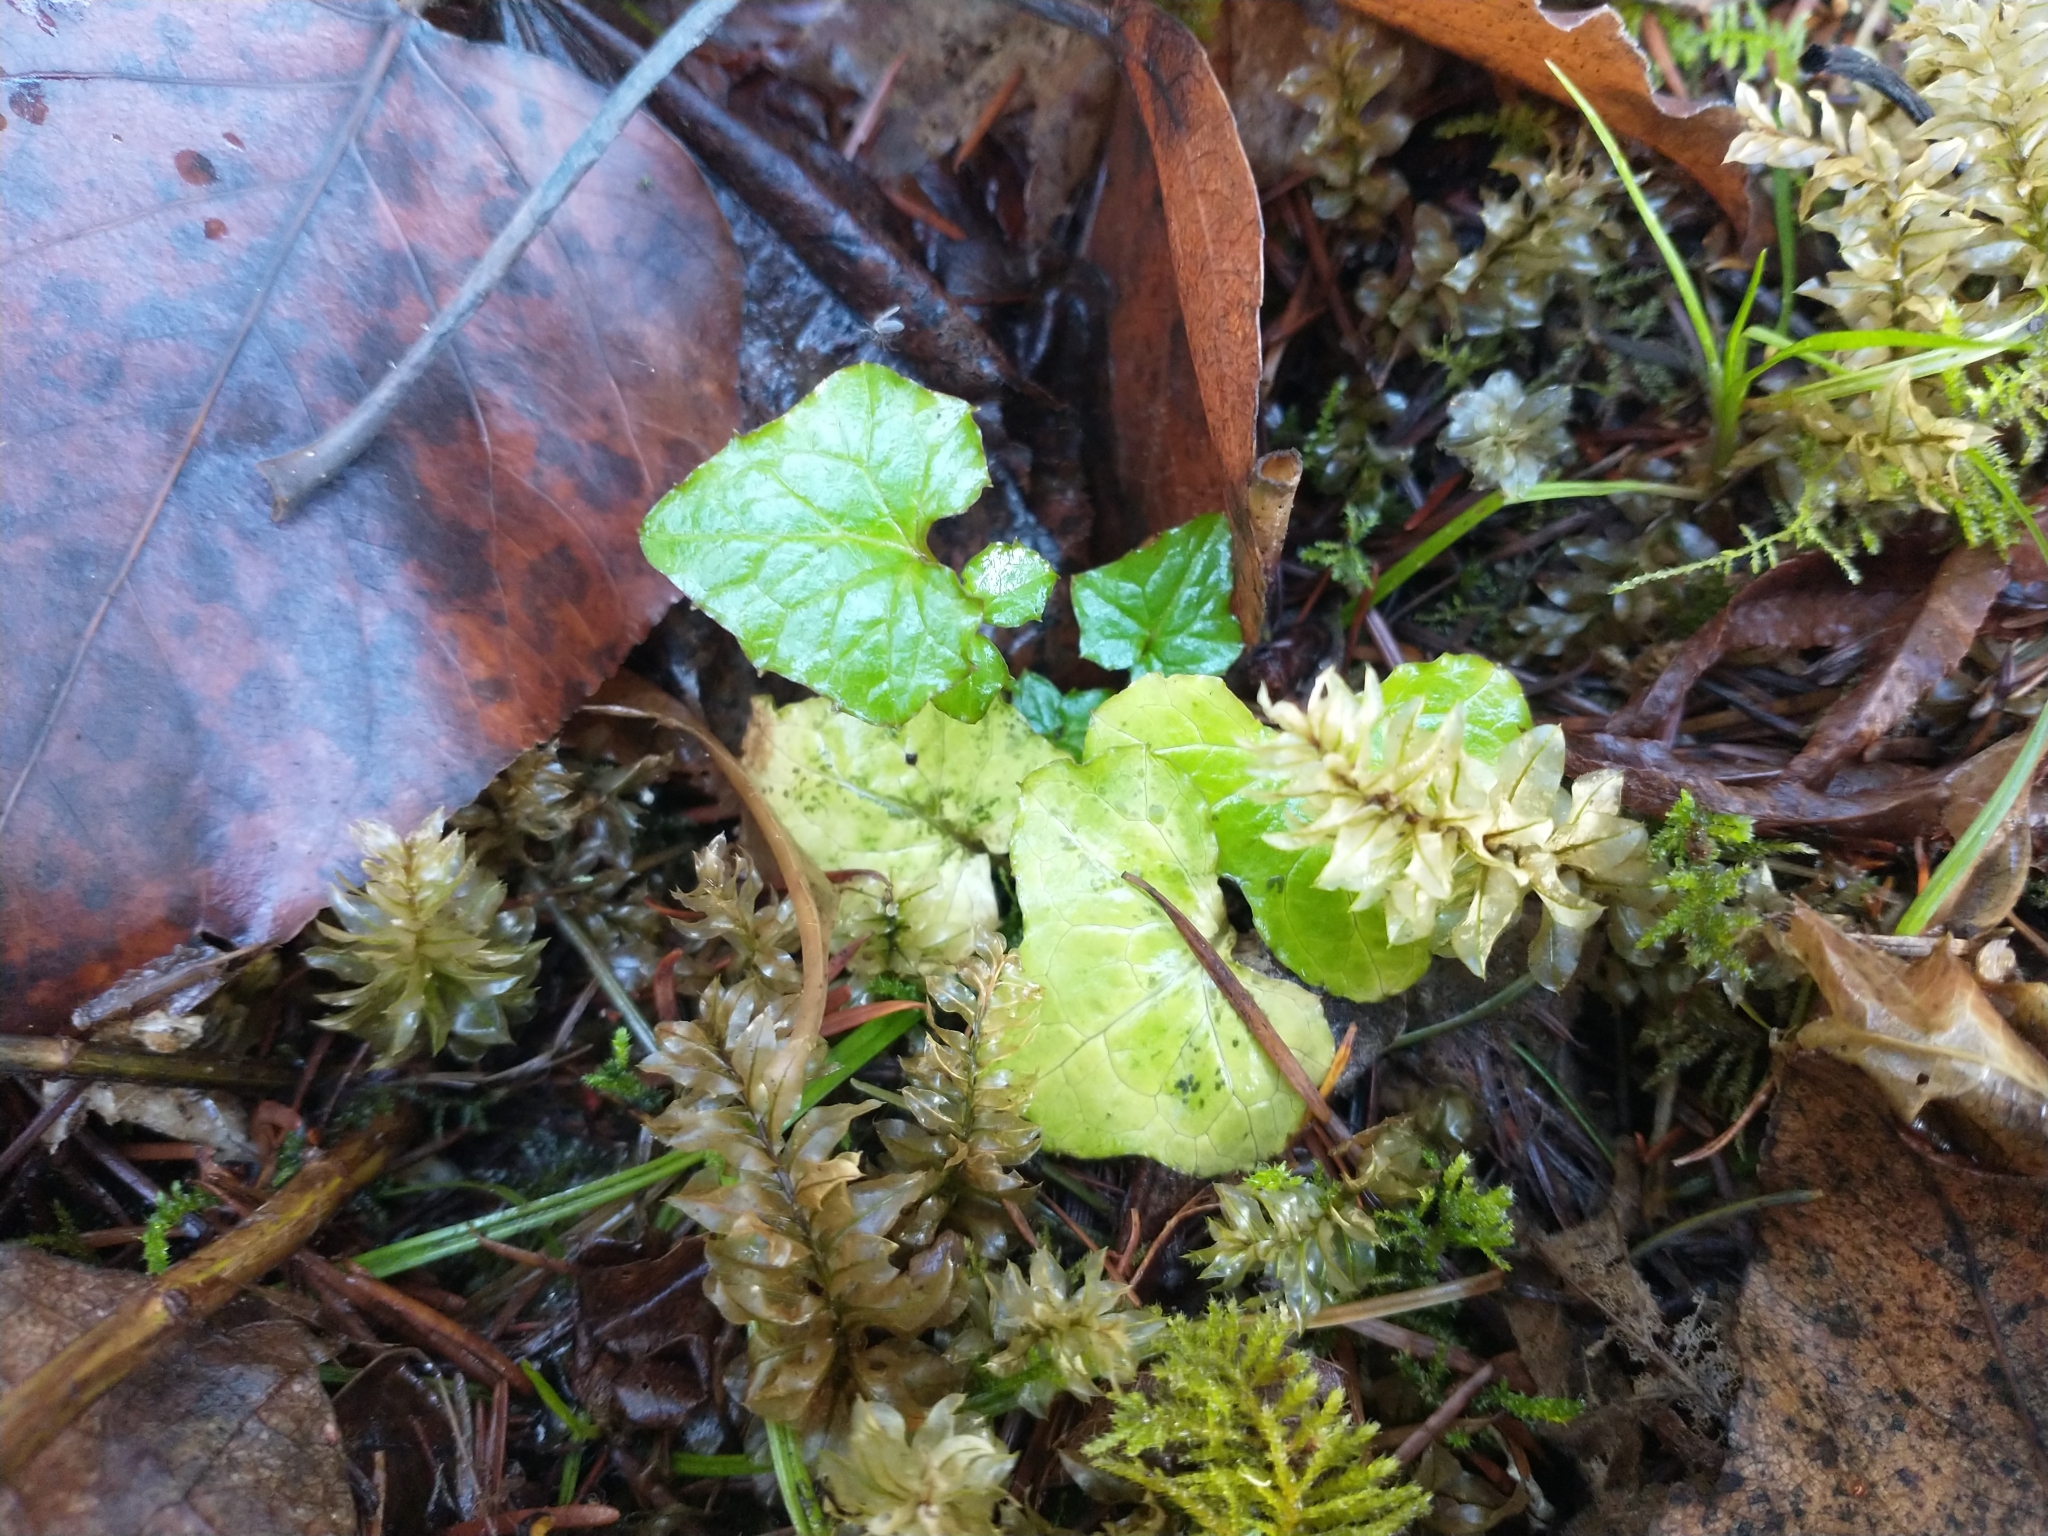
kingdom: Plantae
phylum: Tracheophyta
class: Magnoliopsida
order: Asterales
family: Asteraceae
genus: Mycelis
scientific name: Mycelis muralis
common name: Wall lettuce
